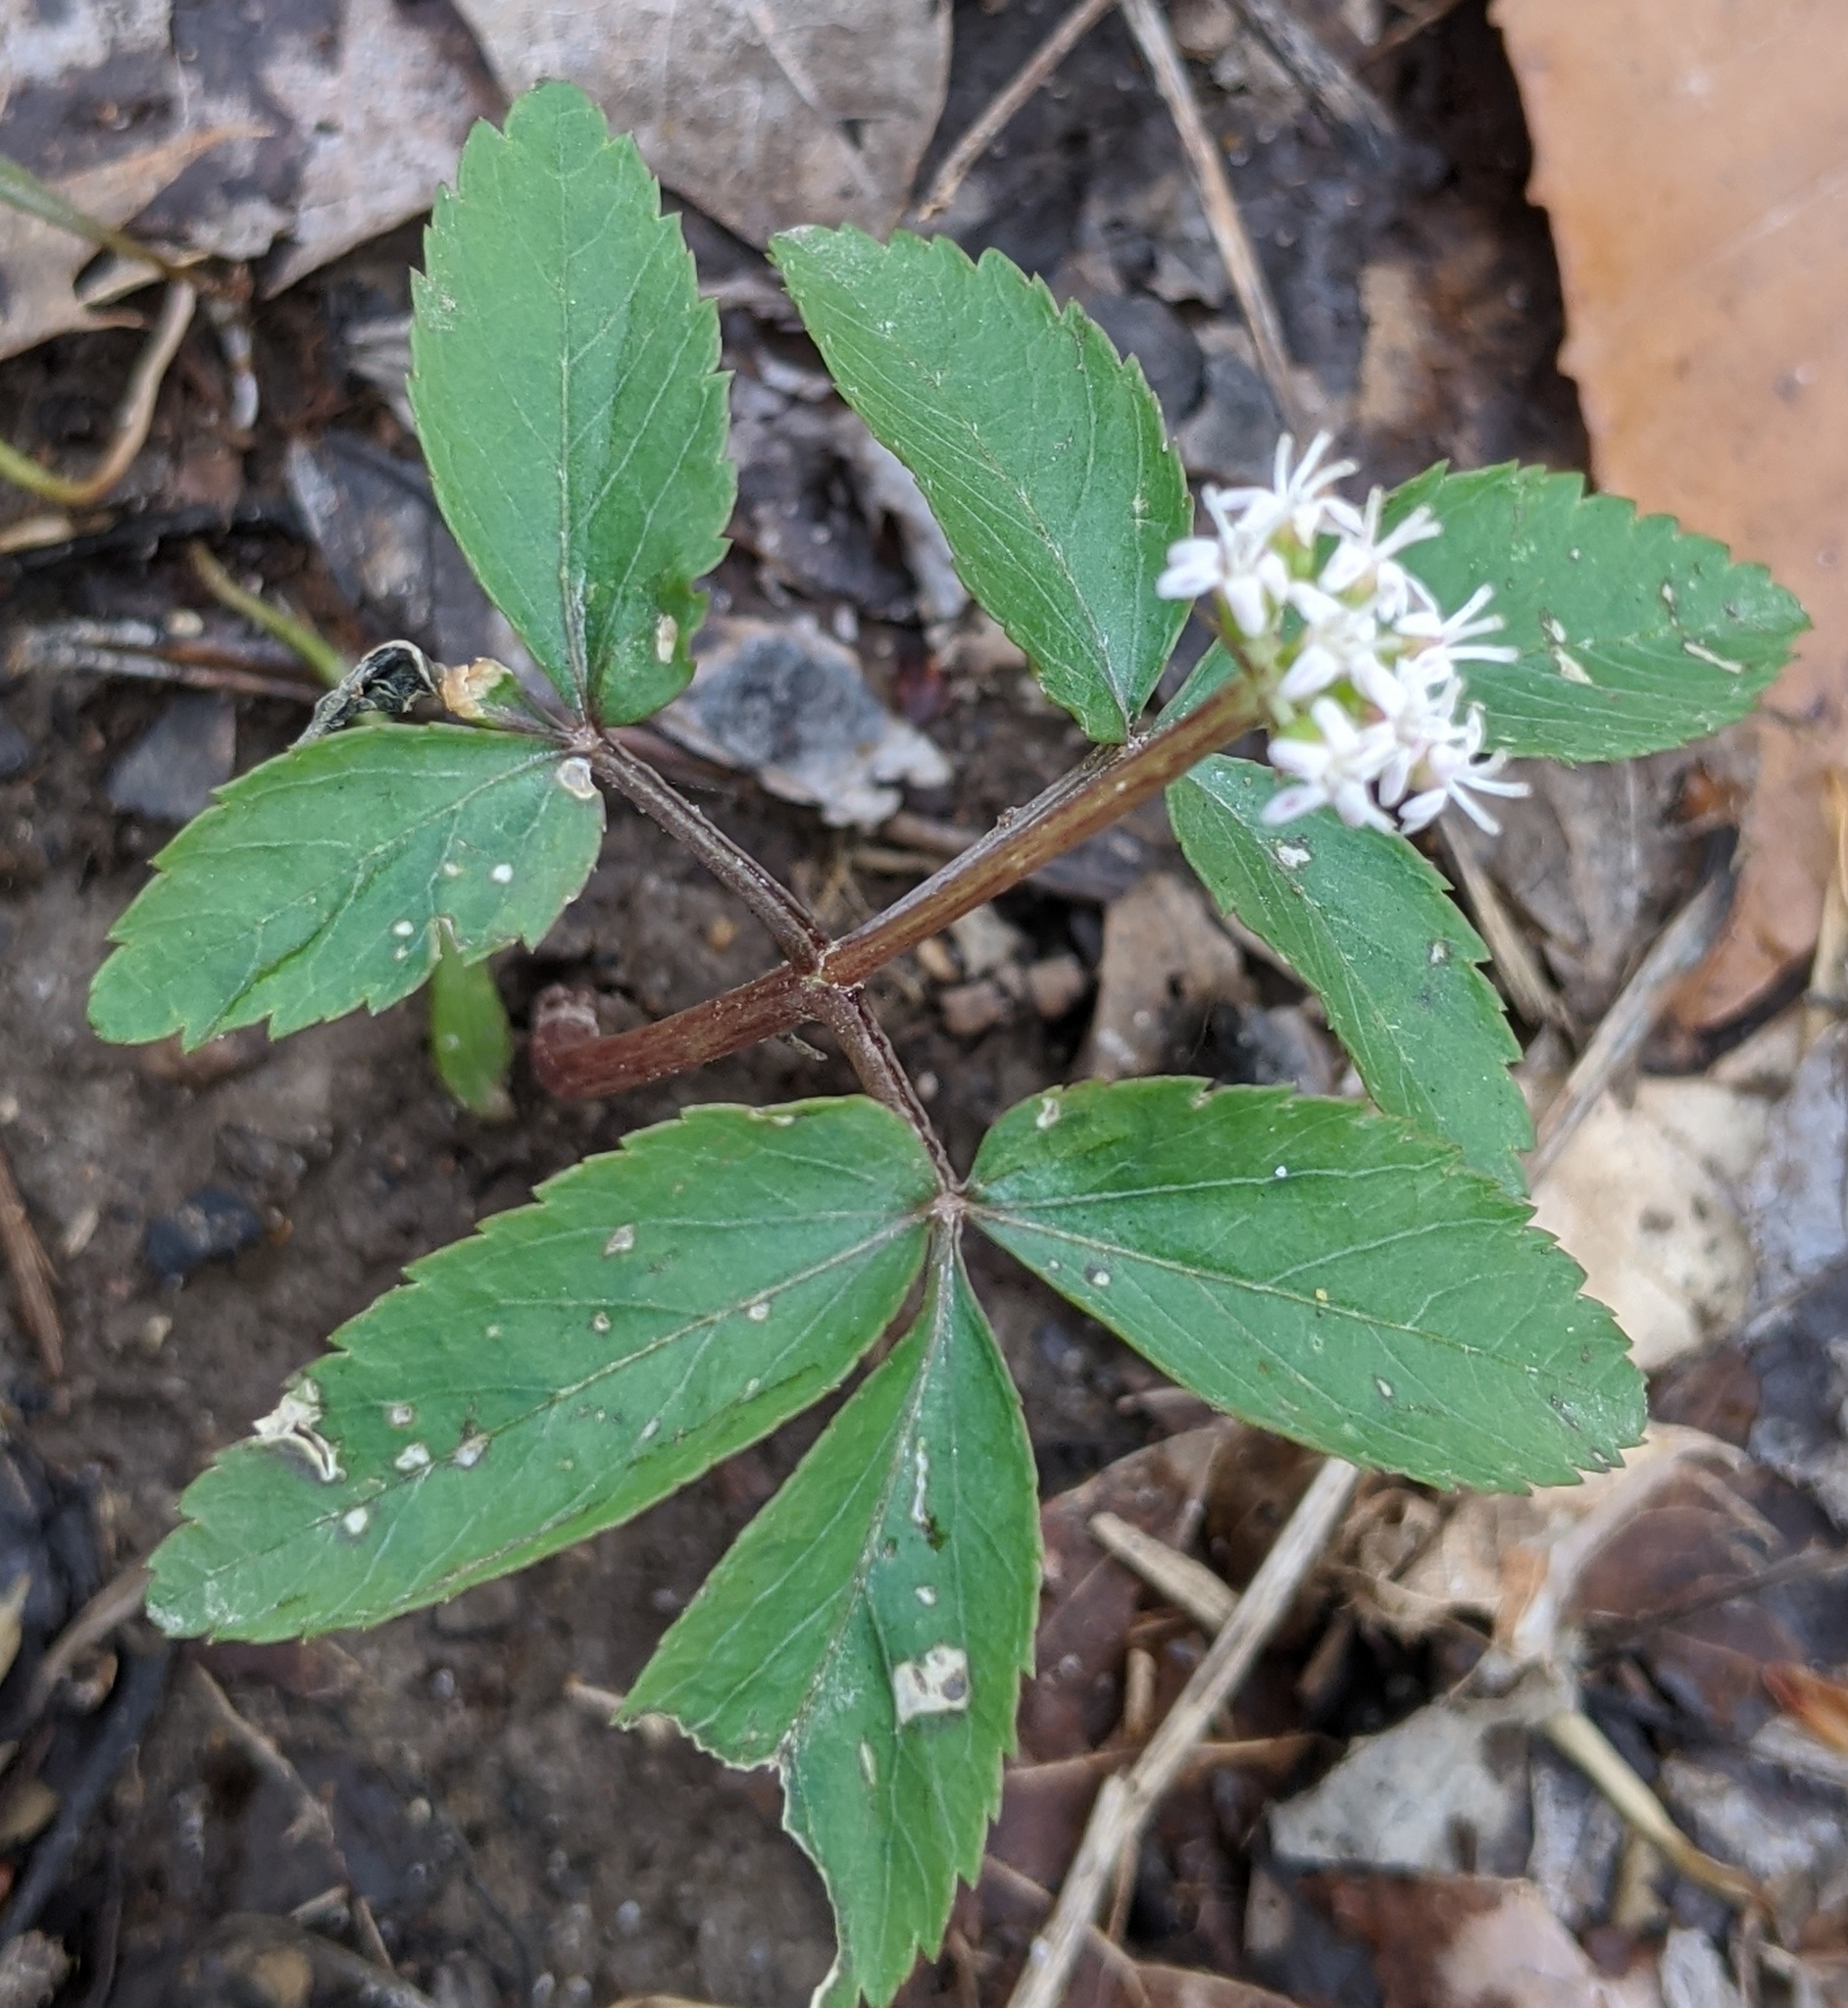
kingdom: Plantae
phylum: Tracheophyta
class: Magnoliopsida
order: Apiales
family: Araliaceae
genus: Panax
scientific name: Panax trifolius
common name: Dwarf ginseng
